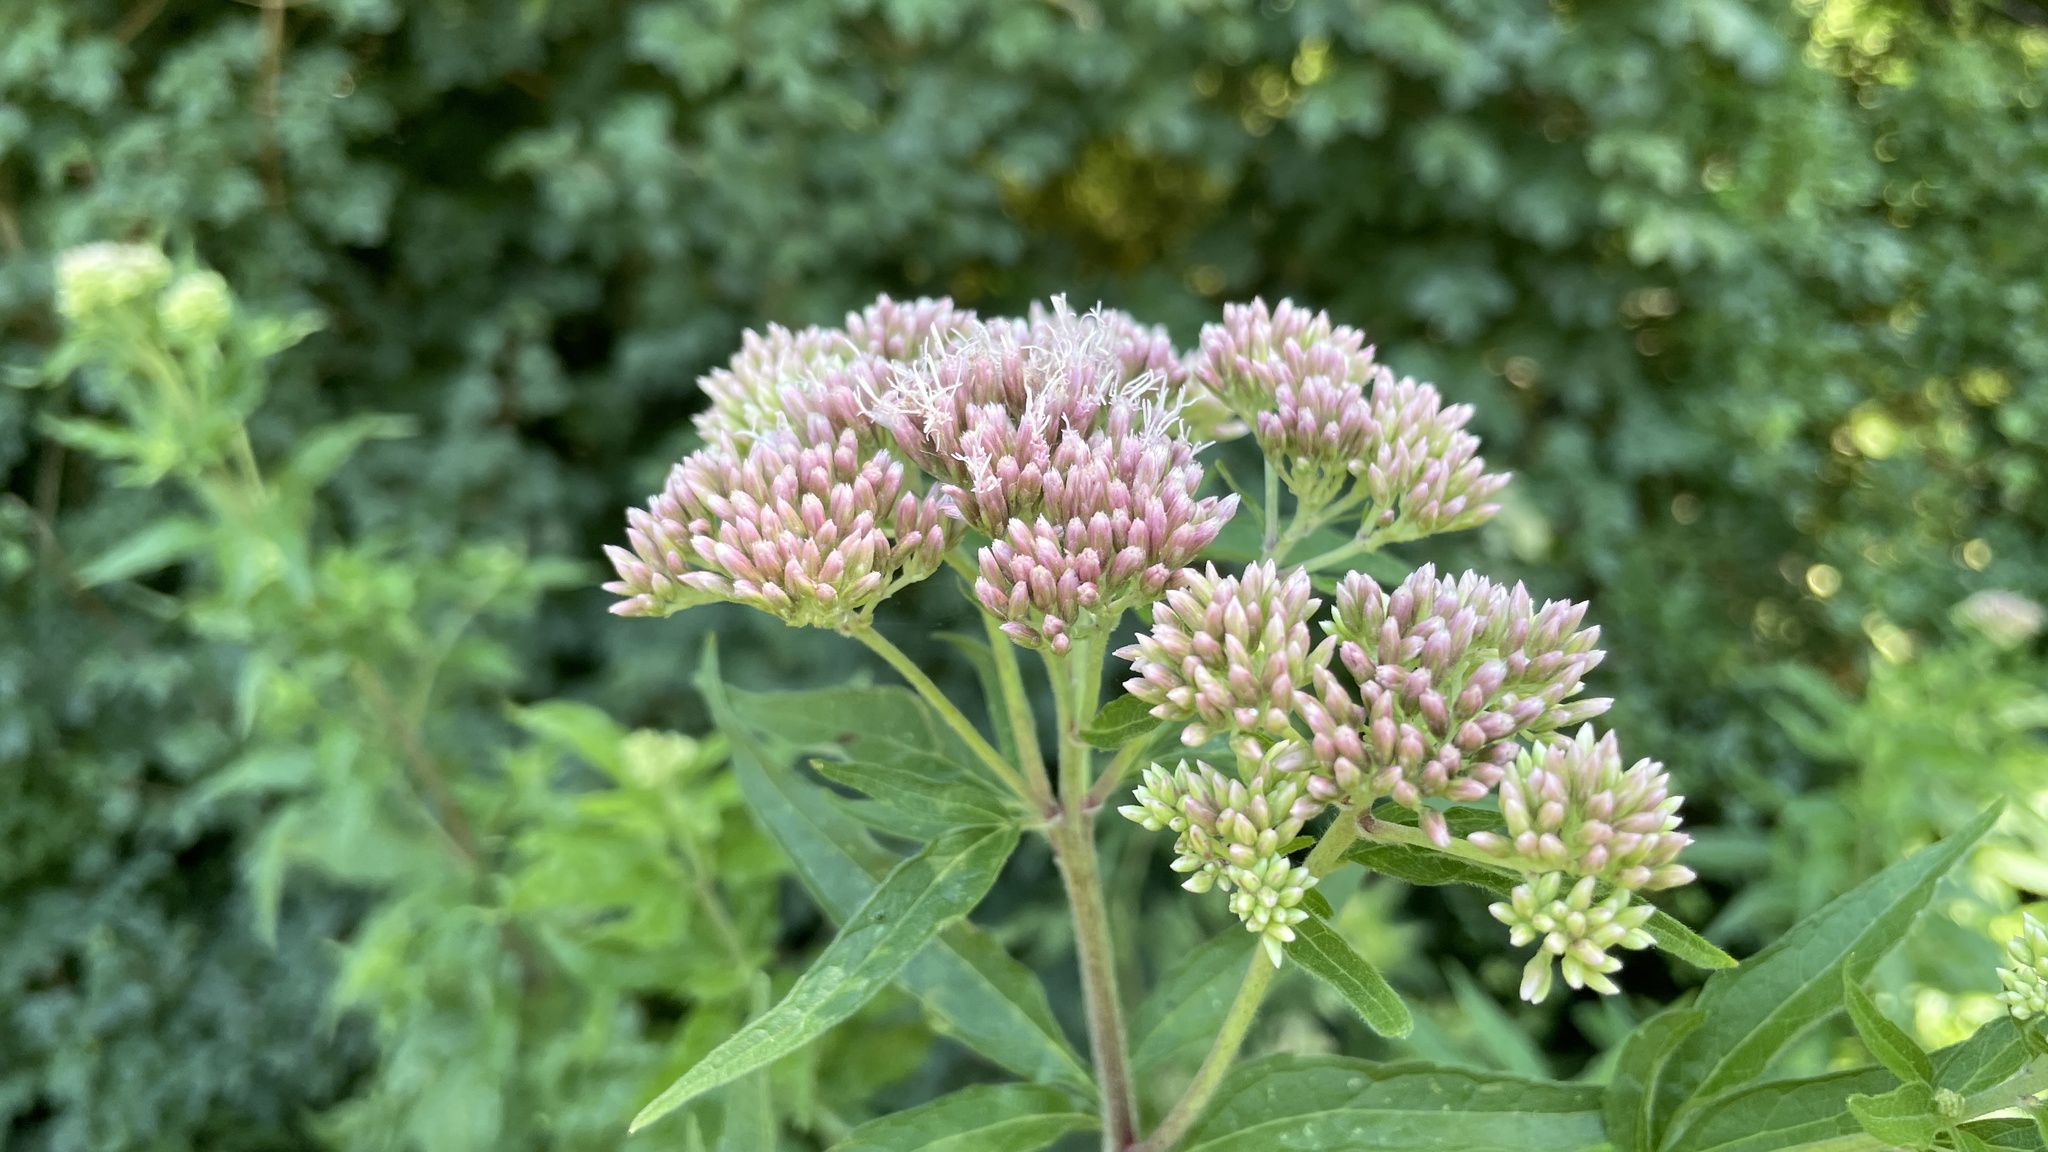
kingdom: Plantae
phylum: Tracheophyta
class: Magnoliopsida
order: Asterales
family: Asteraceae
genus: Eupatorium
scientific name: Eupatorium cannabinum
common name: Hemp-agrimony
